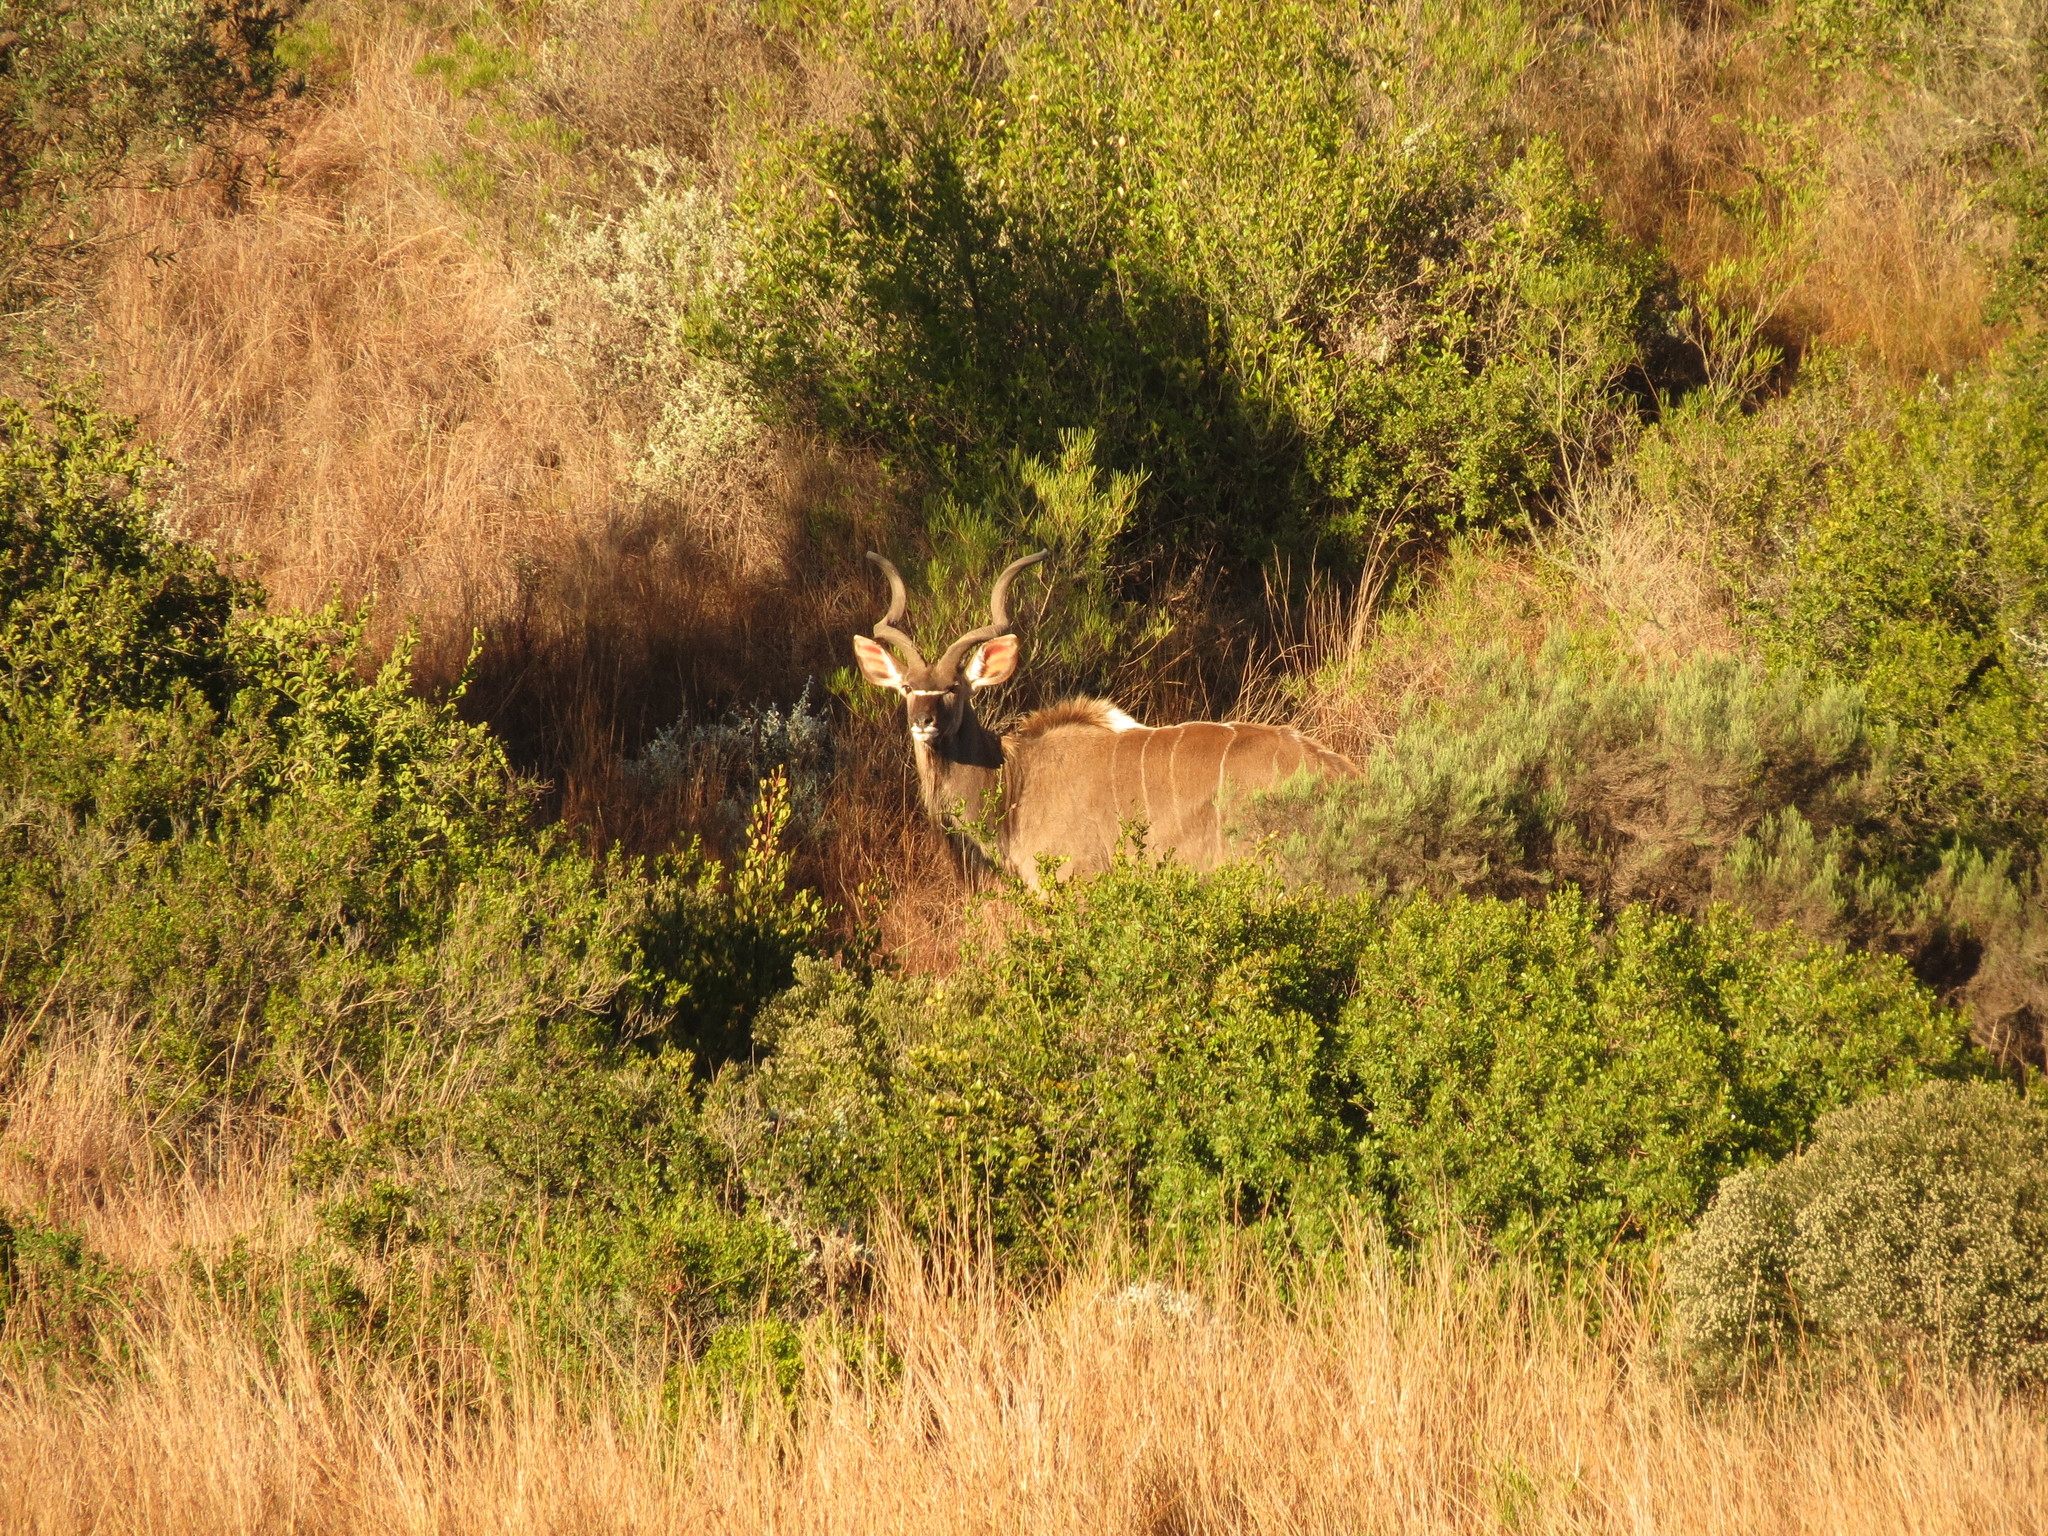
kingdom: Animalia
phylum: Chordata
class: Mammalia
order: Artiodactyla
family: Bovidae
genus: Tragelaphus
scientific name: Tragelaphus strepsiceros
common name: Greater kudu
